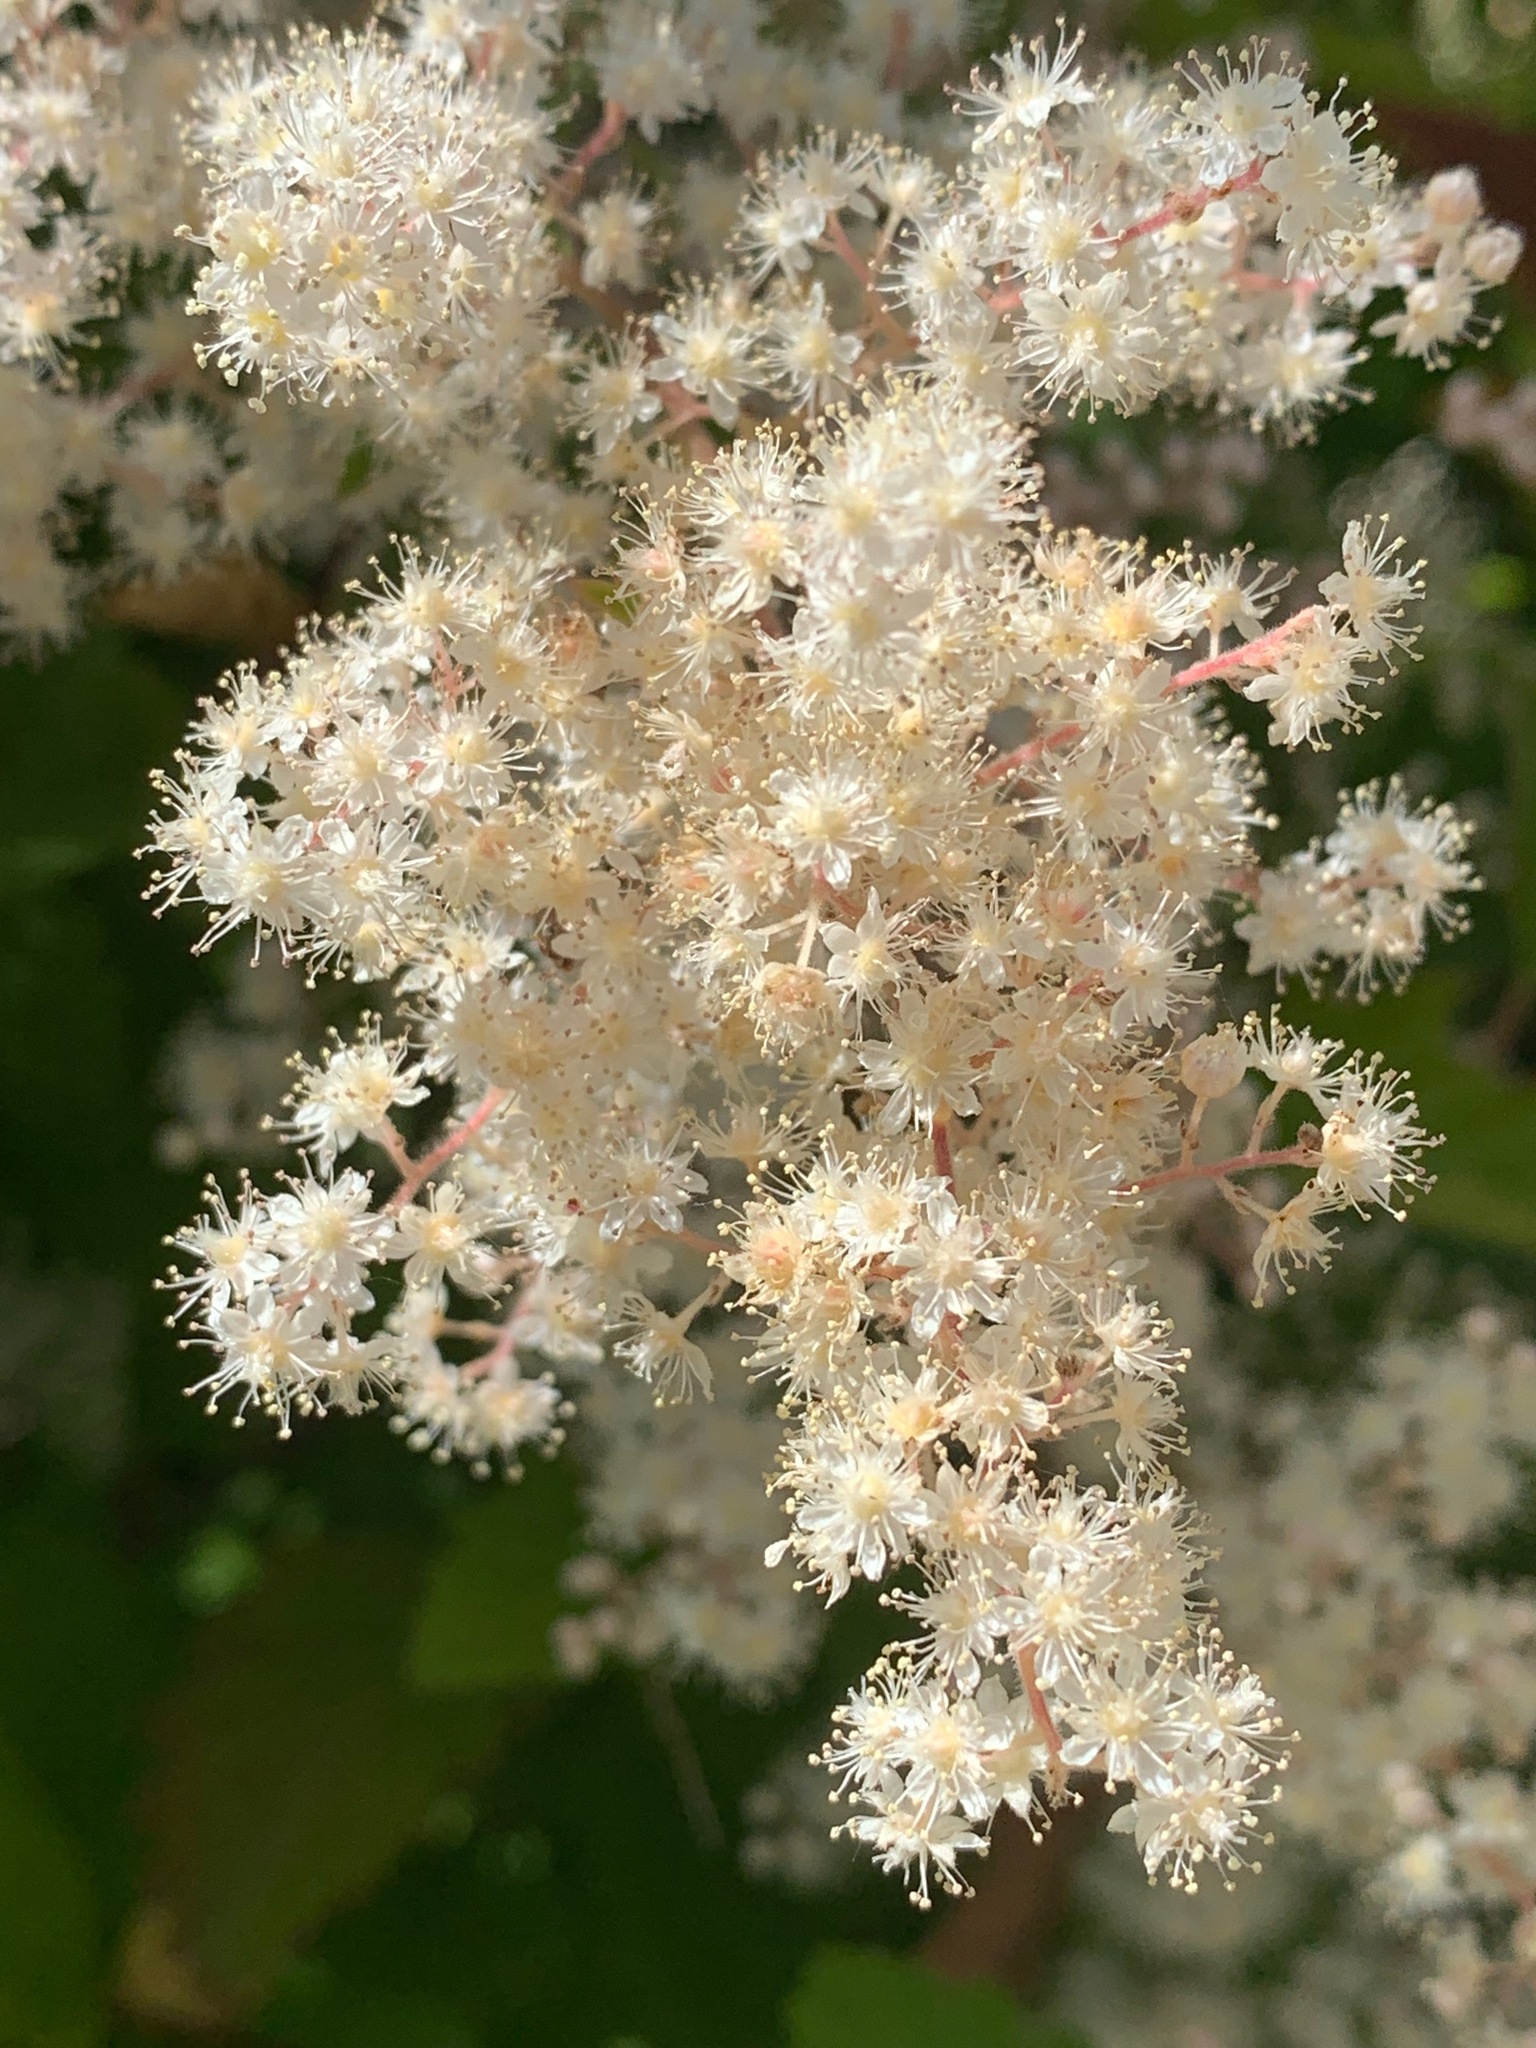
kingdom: Plantae
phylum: Tracheophyta
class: Magnoliopsida
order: Rosales
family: Rosaceae
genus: Holodiscus
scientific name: Holodiscus discolor
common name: Oceanspray
